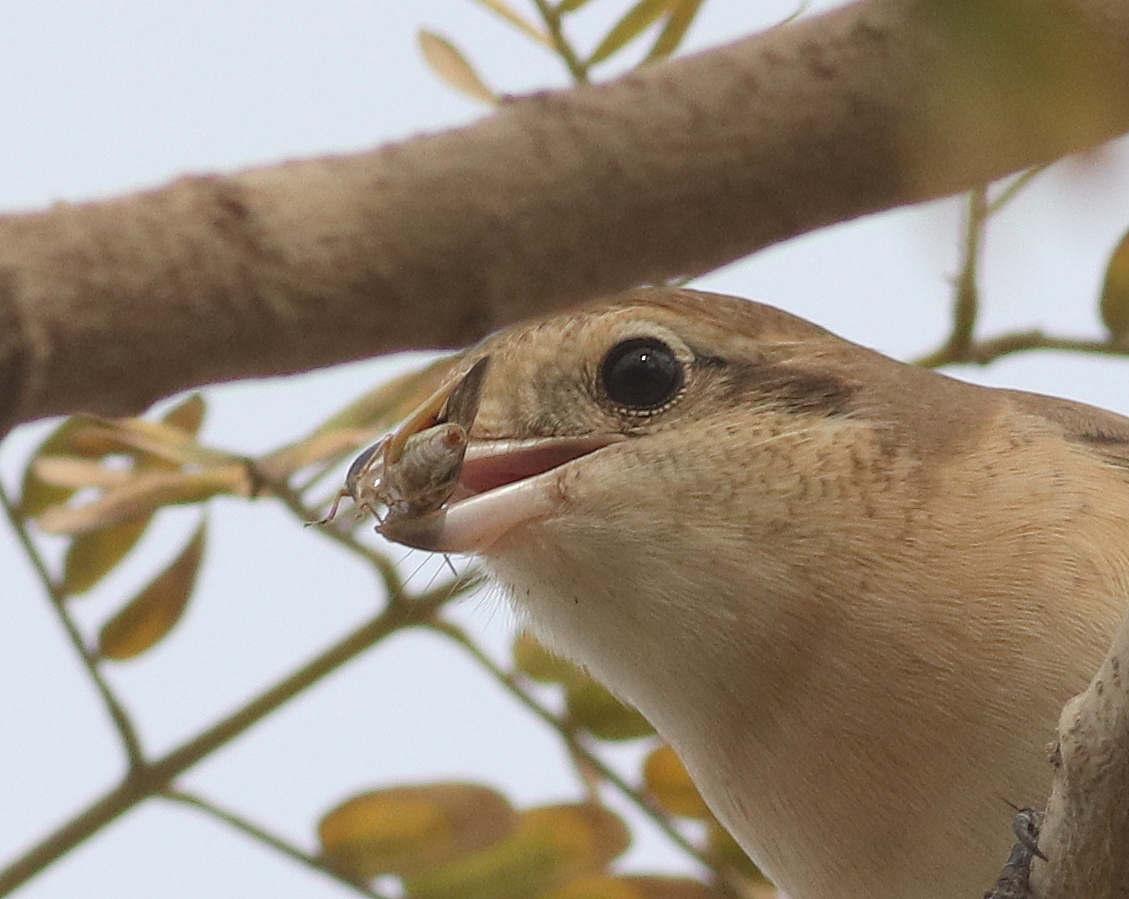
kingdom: Animalia
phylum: Chordata
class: Aves
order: Passeriformes
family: Laniidae
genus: Lanius
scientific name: Lanius isabellinus
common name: Isabelline shrike
